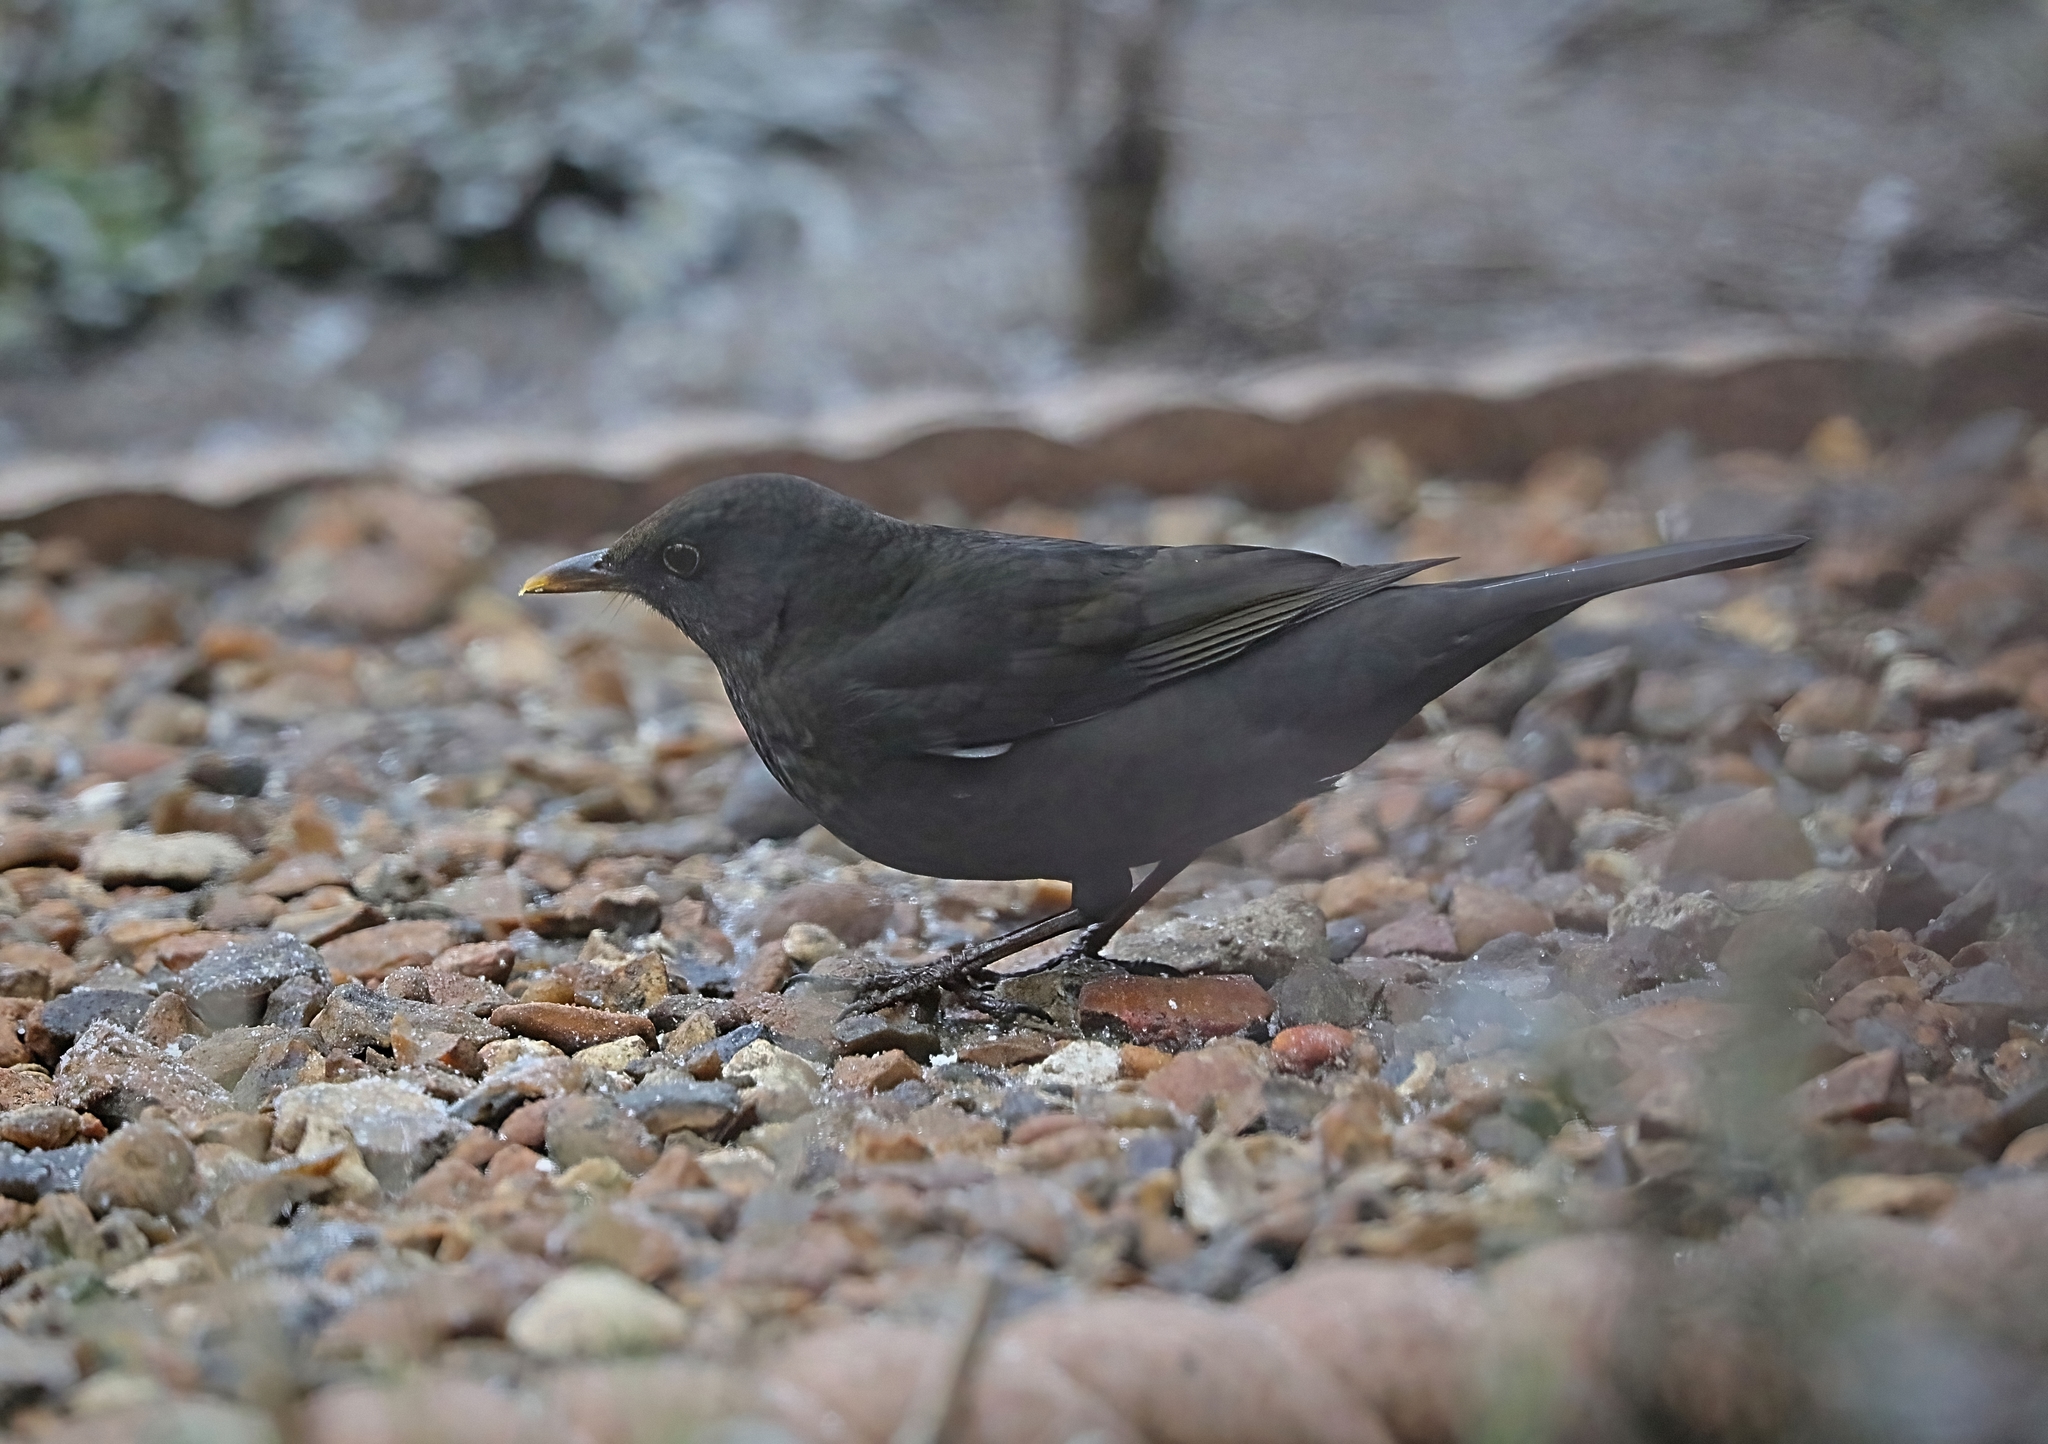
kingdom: Animalia
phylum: Chordata
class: Aves
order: Passeriformes
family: Turdidae
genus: Turdus
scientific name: Turdus merula
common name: Common blackbird
